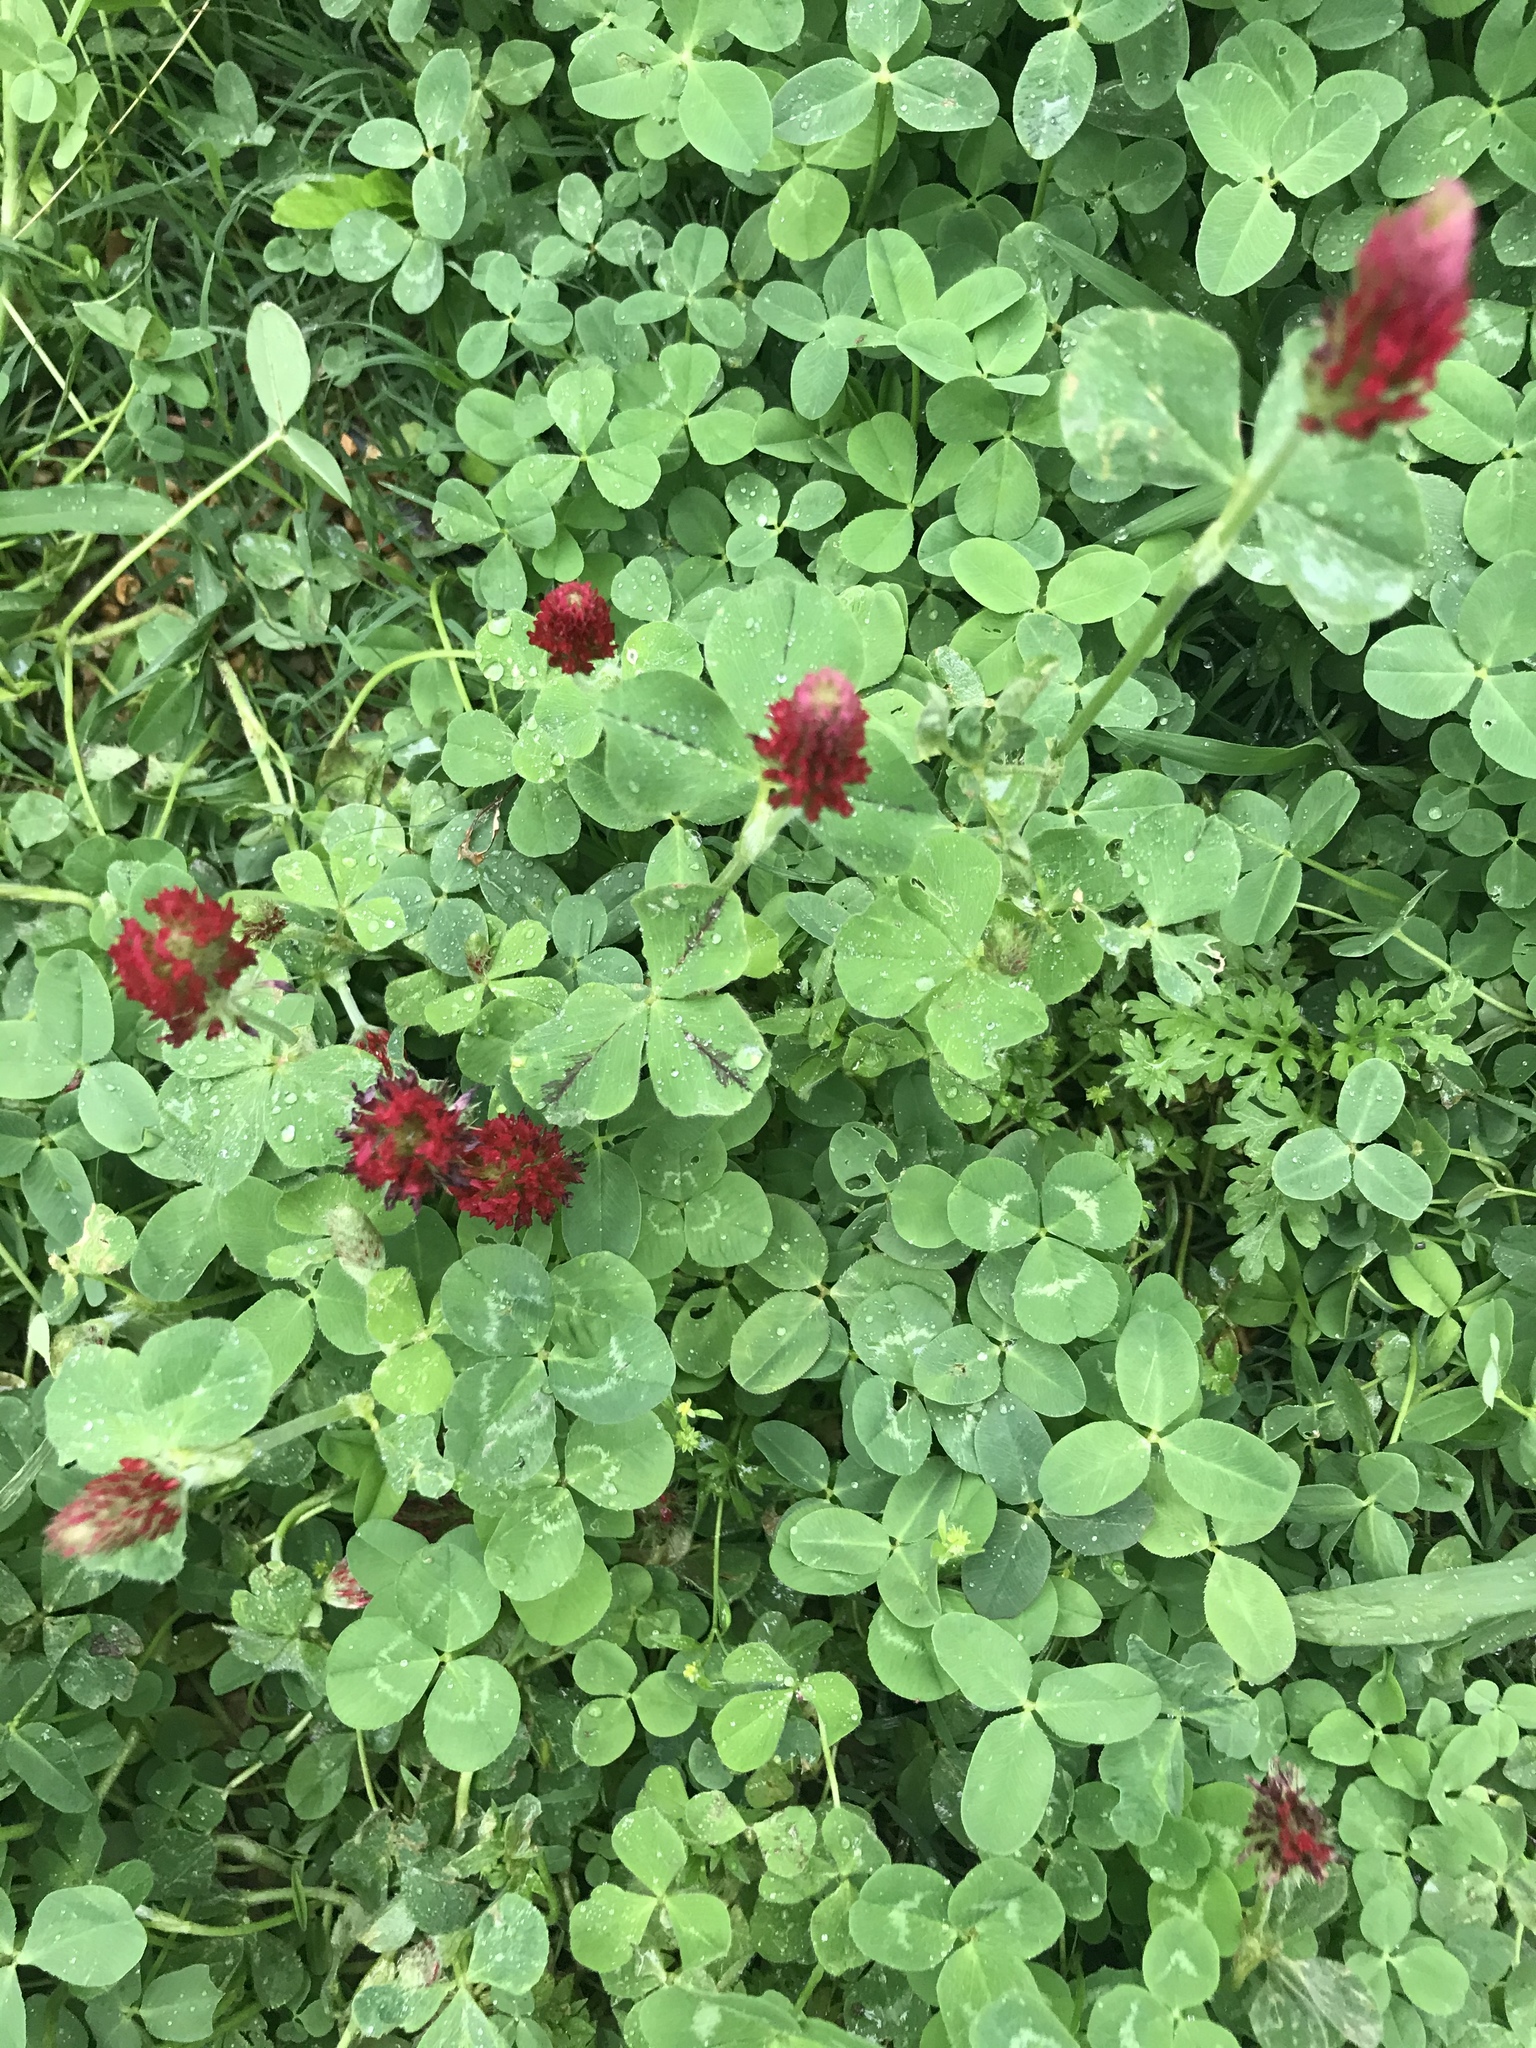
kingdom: Plantae
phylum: Tracheophyta
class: Magnoliopsida
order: Fabales
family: Fabaceae
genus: Trifolium
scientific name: Trifolium incarnatum
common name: Crimson clover
